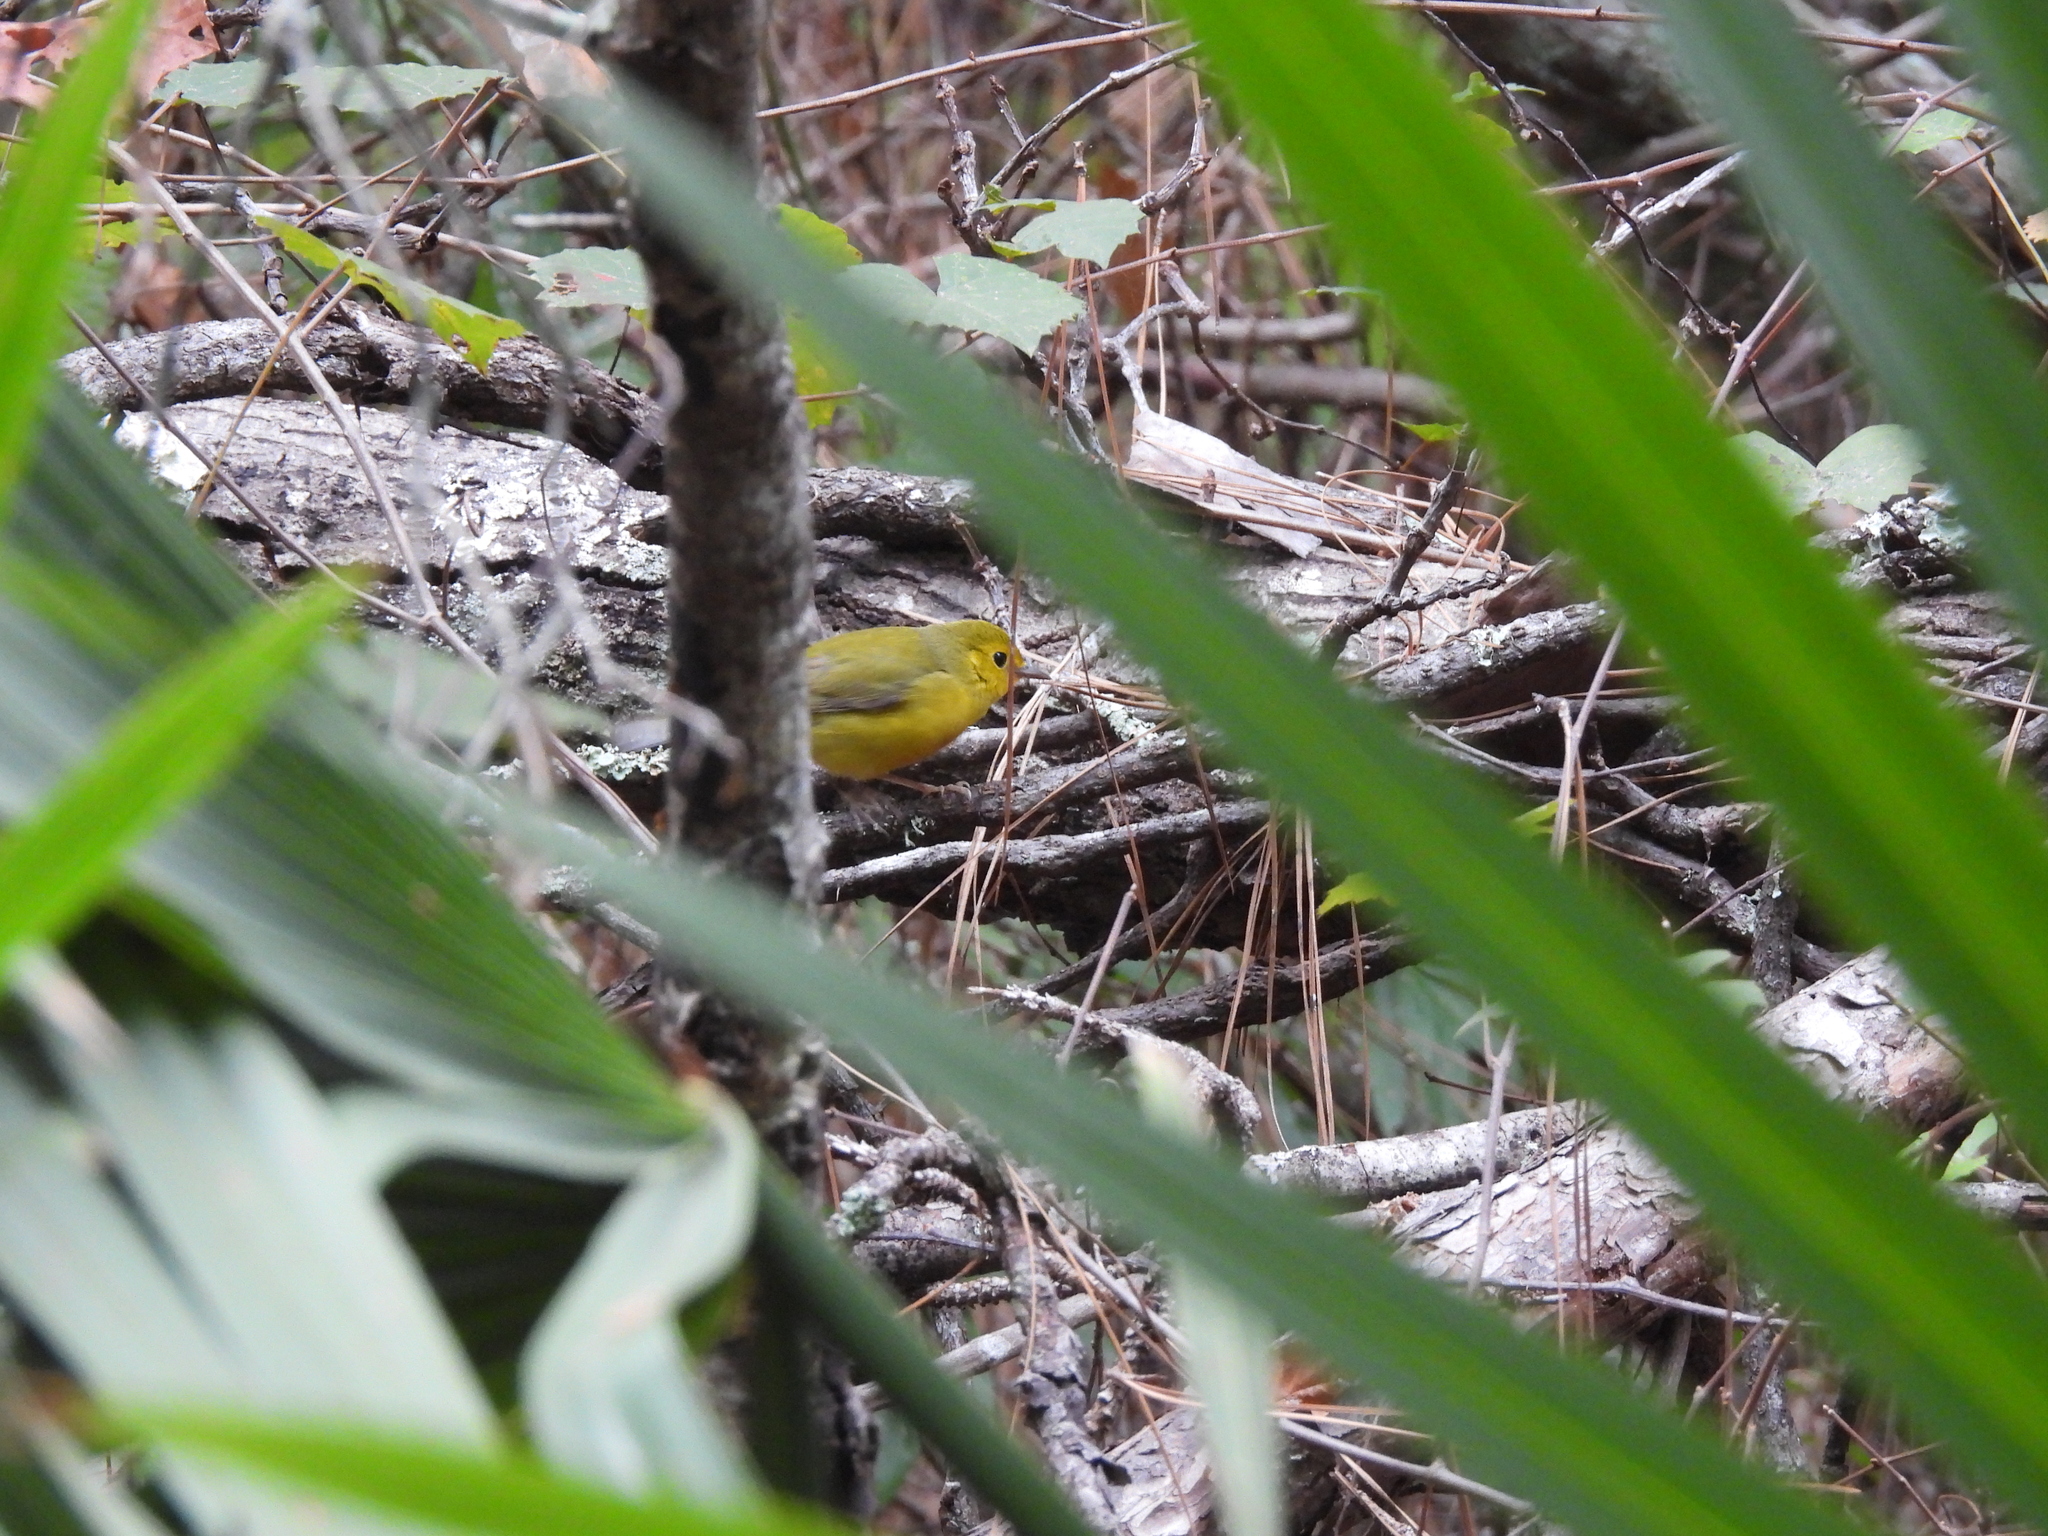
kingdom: Animalia
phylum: Chordata
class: Aves
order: Passeriformes
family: Parulidae
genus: Setophaga
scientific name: Setophaga citrina
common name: Hooded warbler
